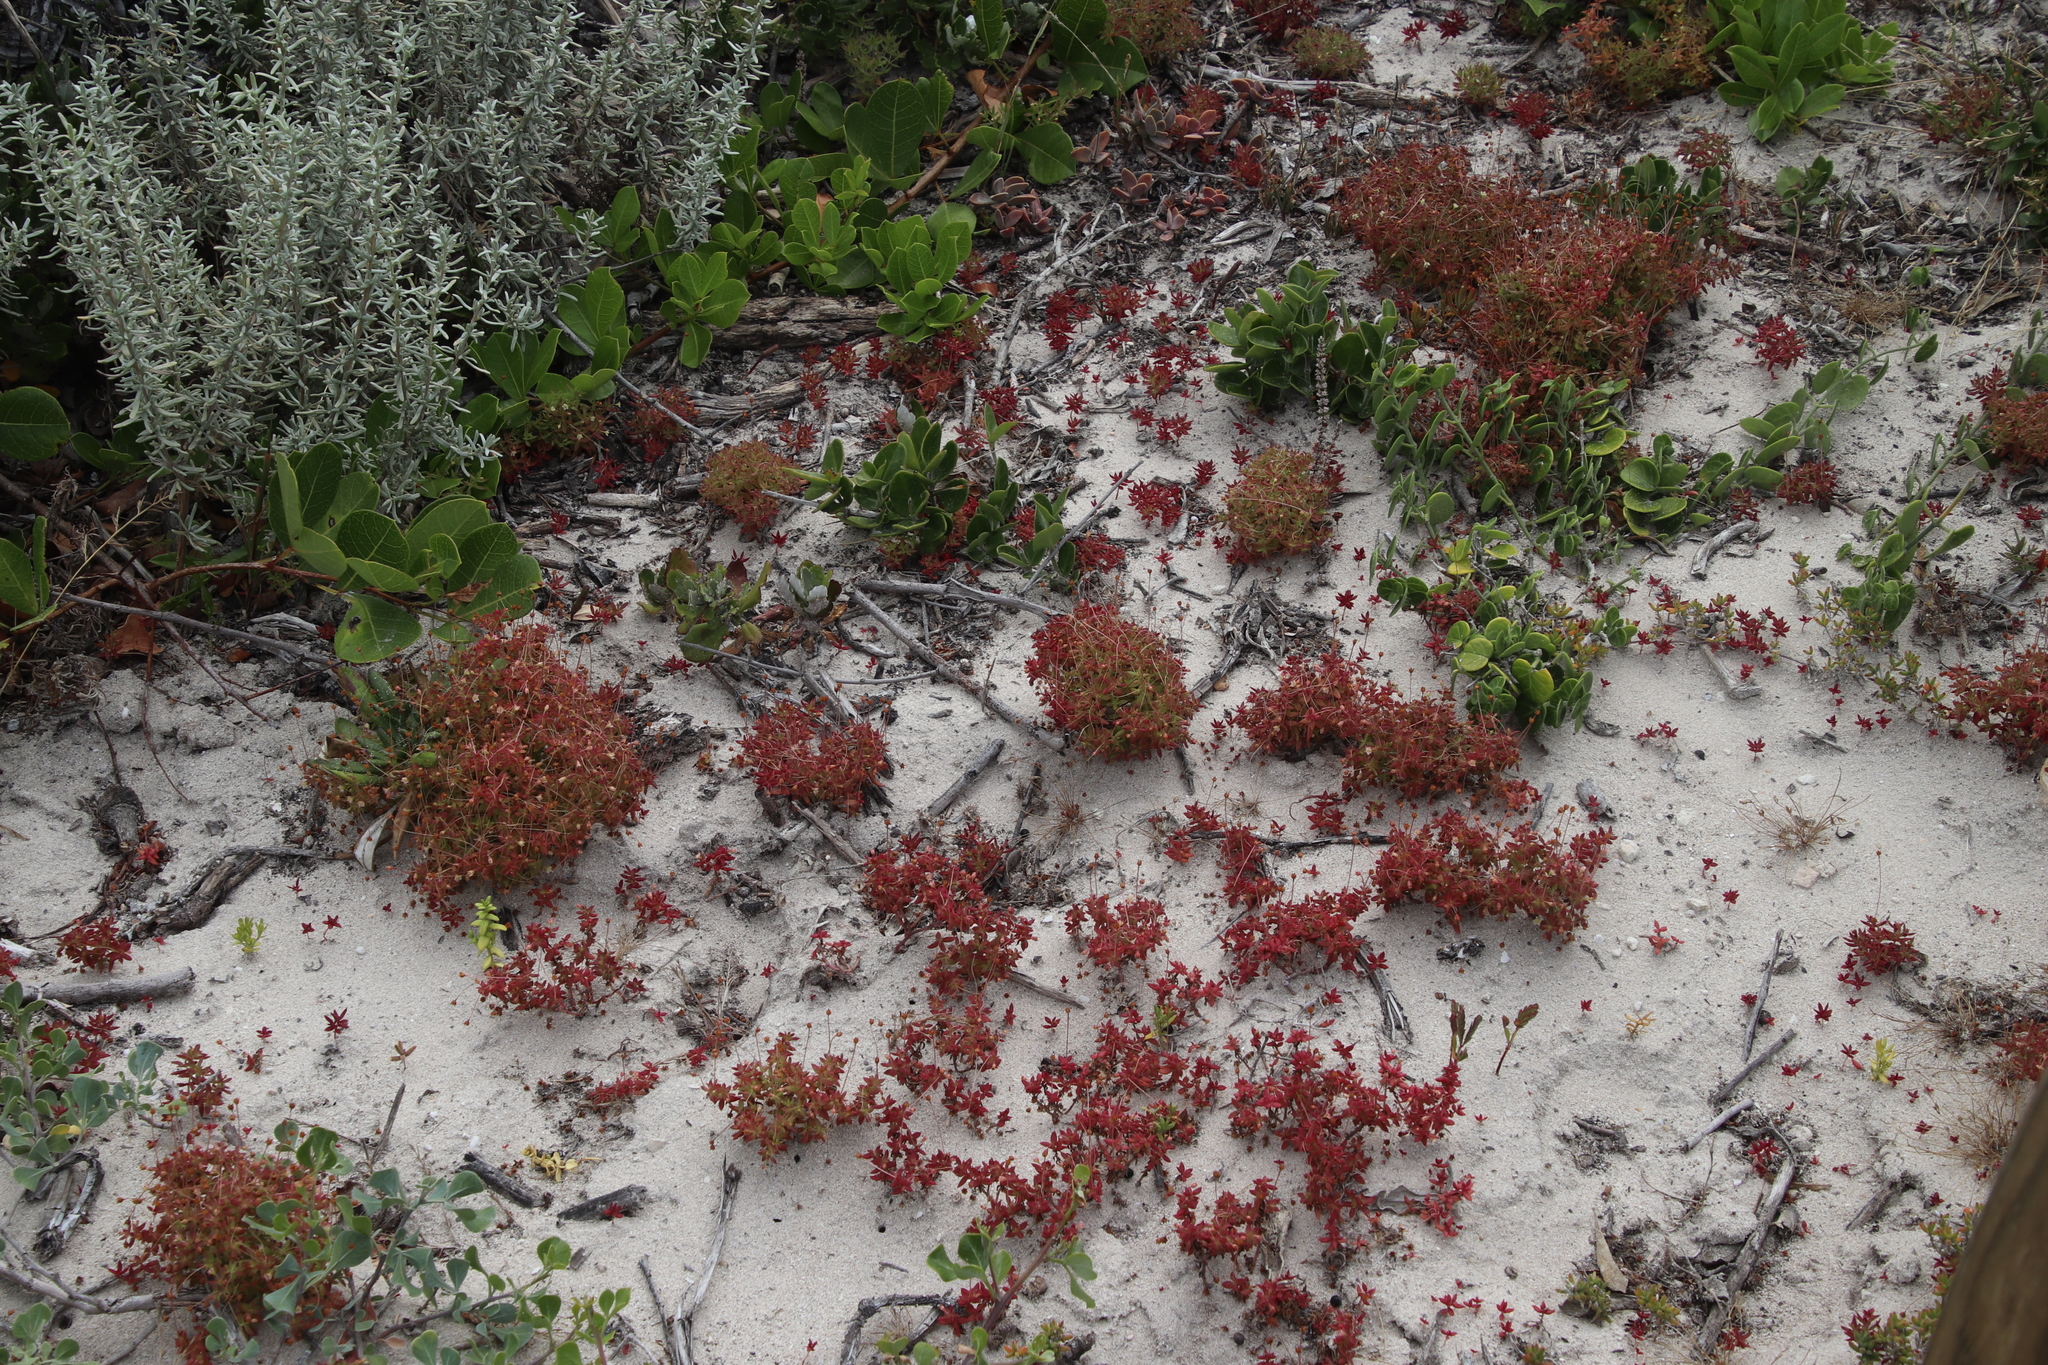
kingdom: Plantae
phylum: Tracheophyta
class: Magnoliopsida
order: Saxifragales
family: Crassulaceae
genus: Crassula
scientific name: Crassula expansa
